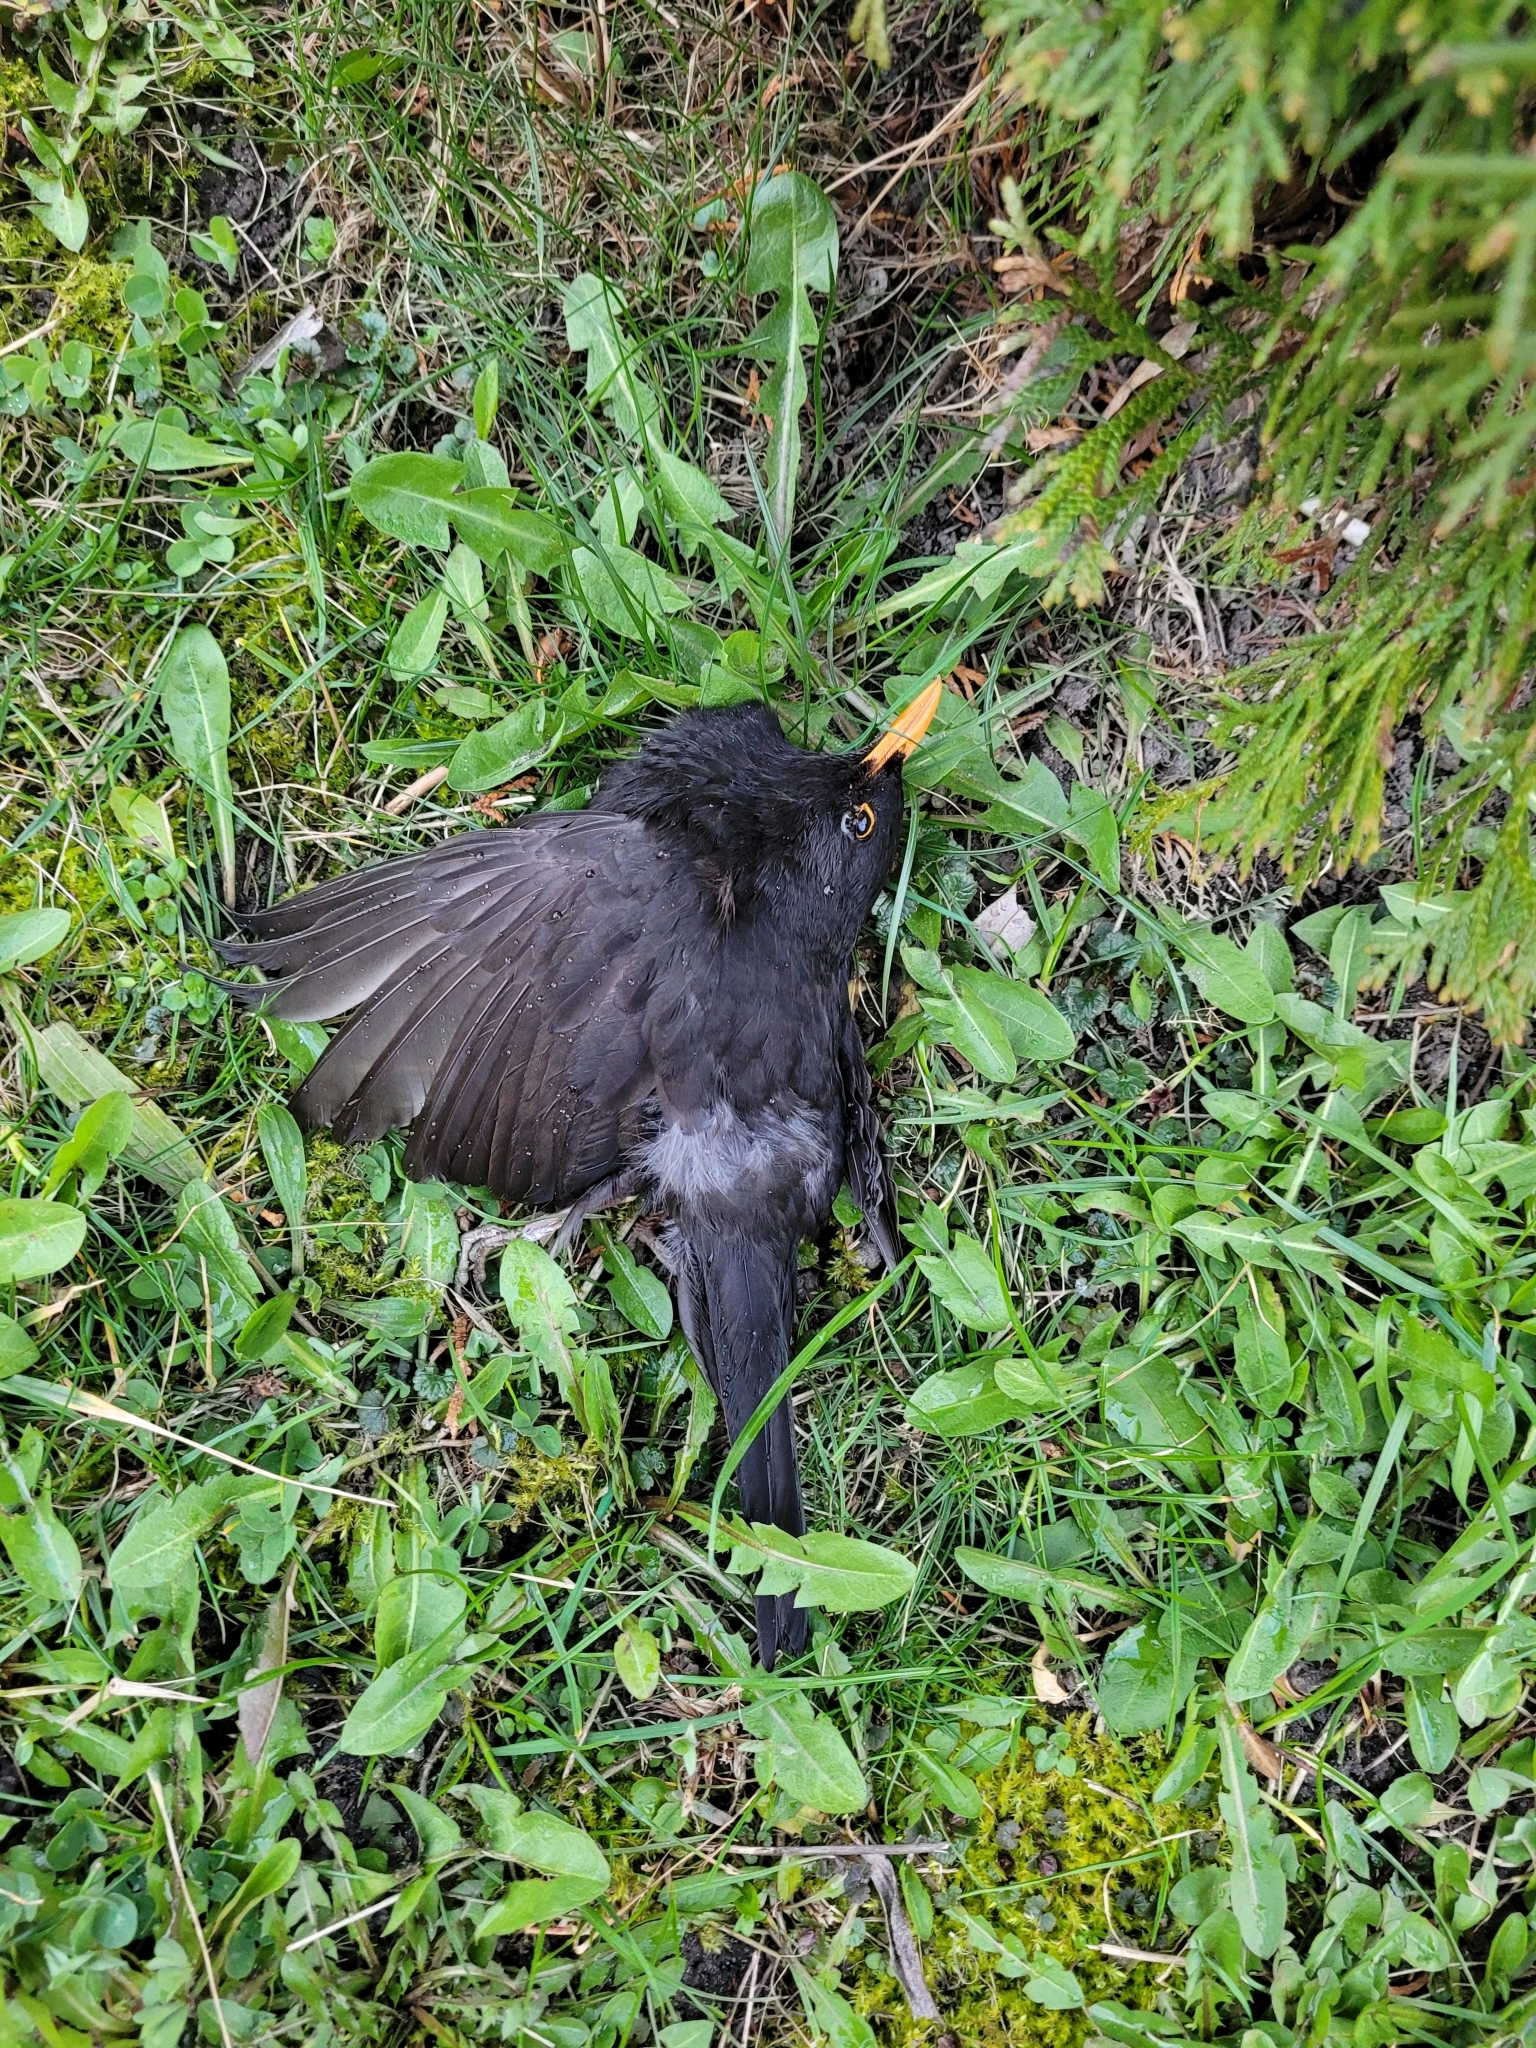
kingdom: Animalia
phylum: Chordata
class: Aves
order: Passeriformes
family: Turdidae
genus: Turdus
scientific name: Turdus merula
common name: Common blackbird
